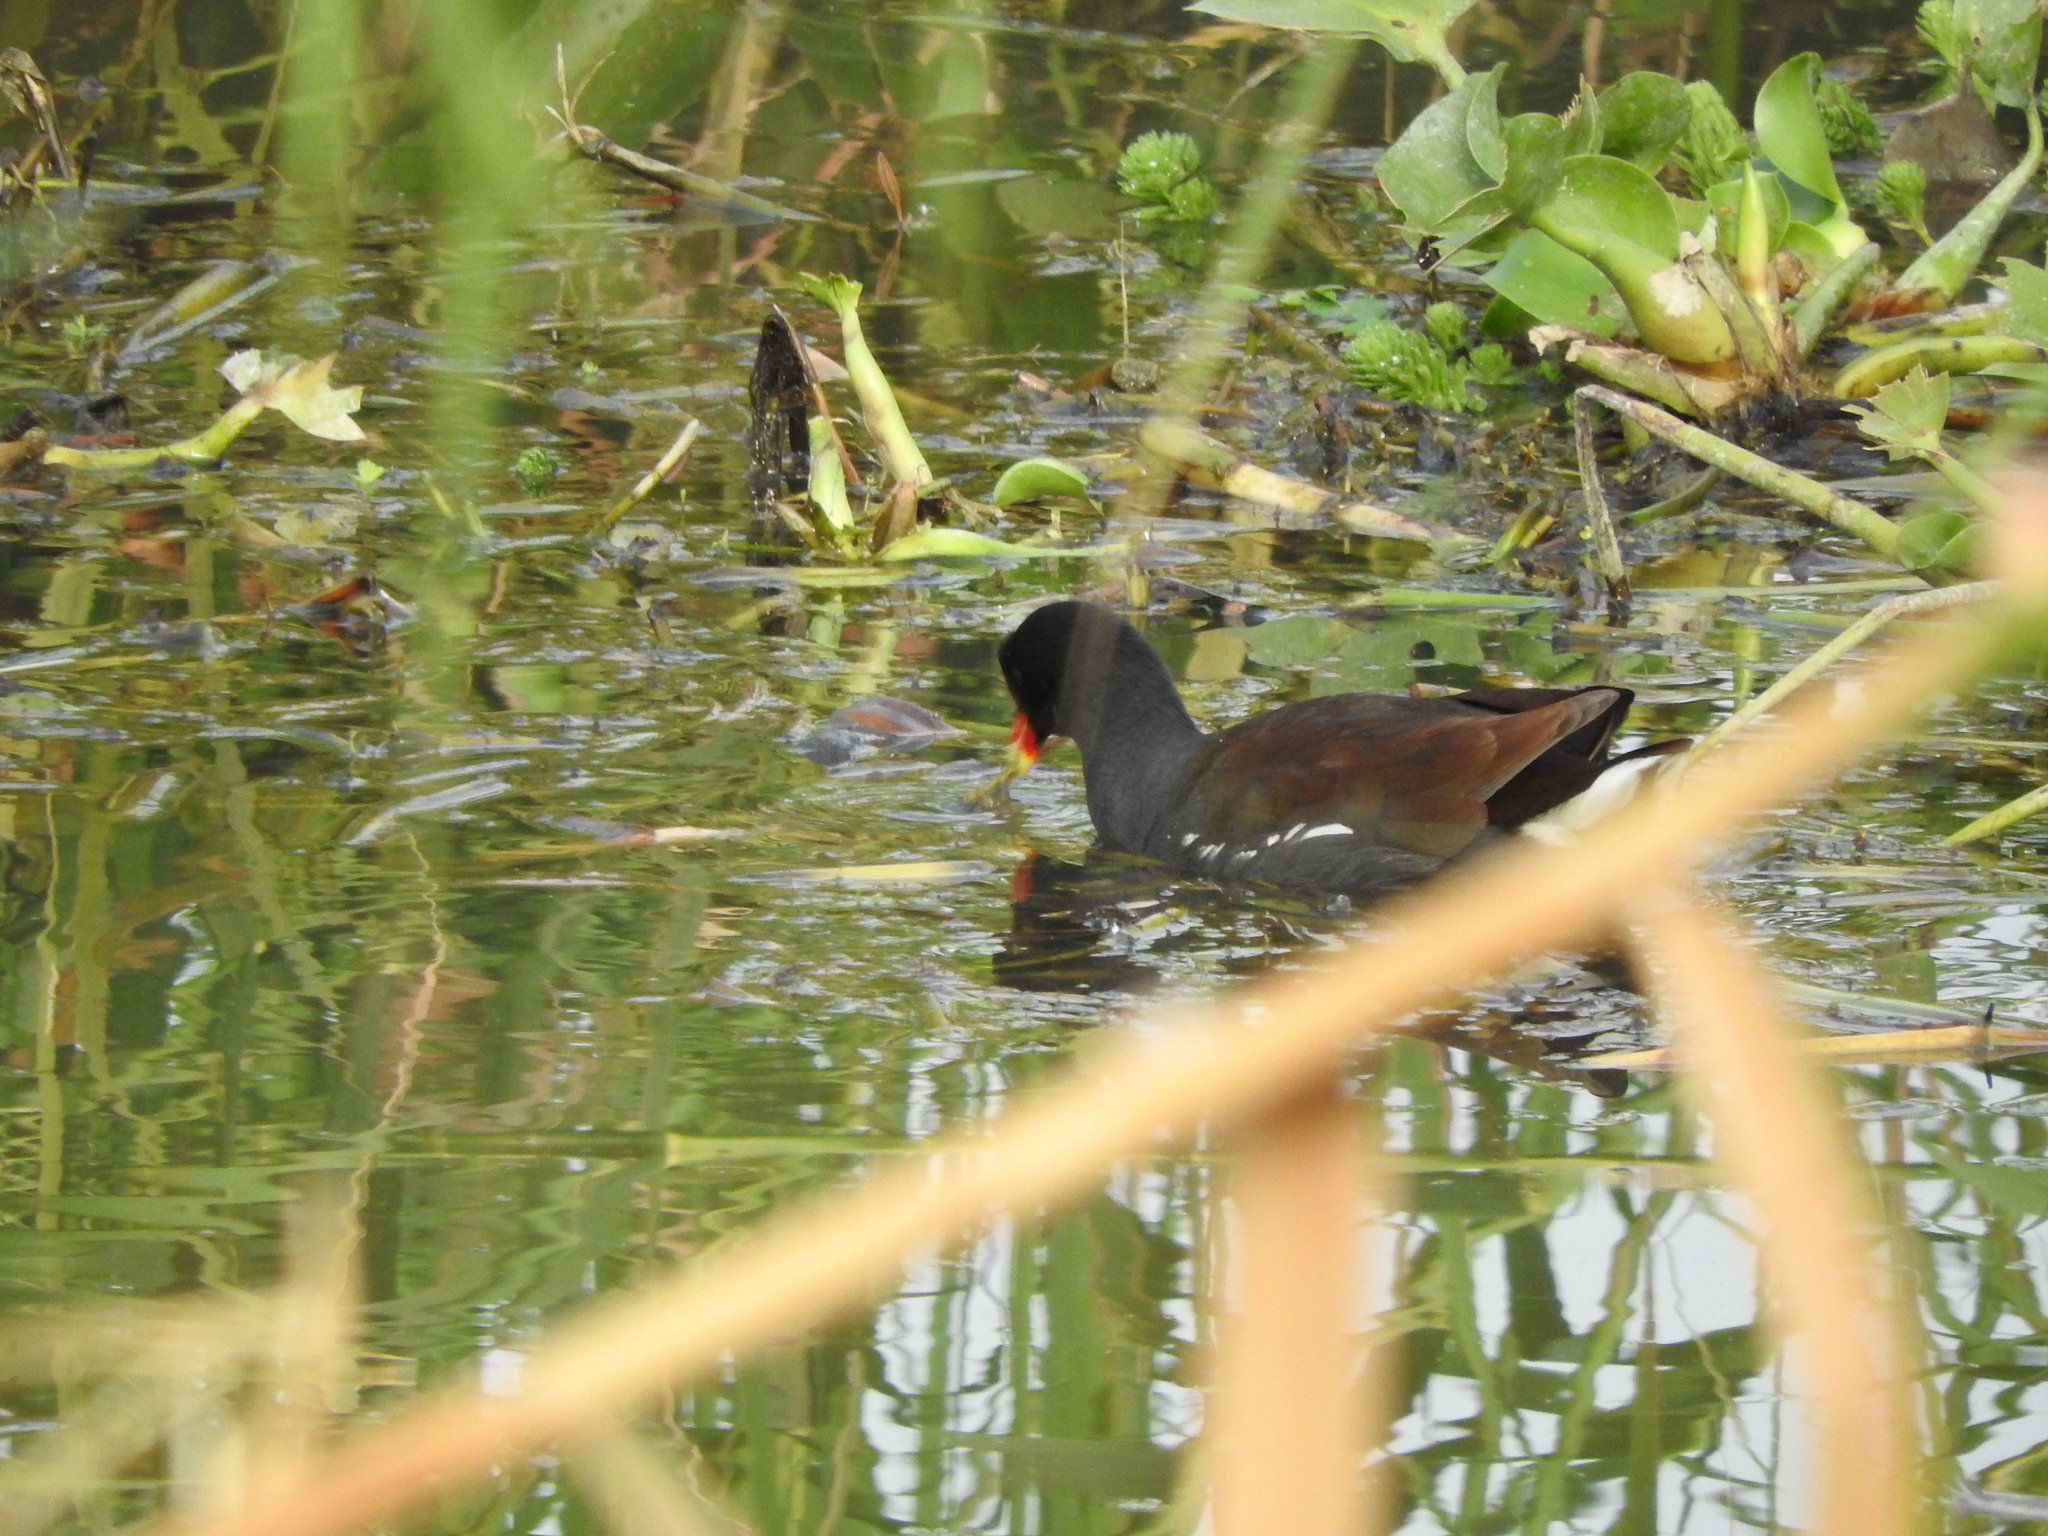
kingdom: Animalia
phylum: Chordata
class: Aves
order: Gruiformes
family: Rallidae
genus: Gallinula
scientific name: Gallinula chloropus
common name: Common moorhen
